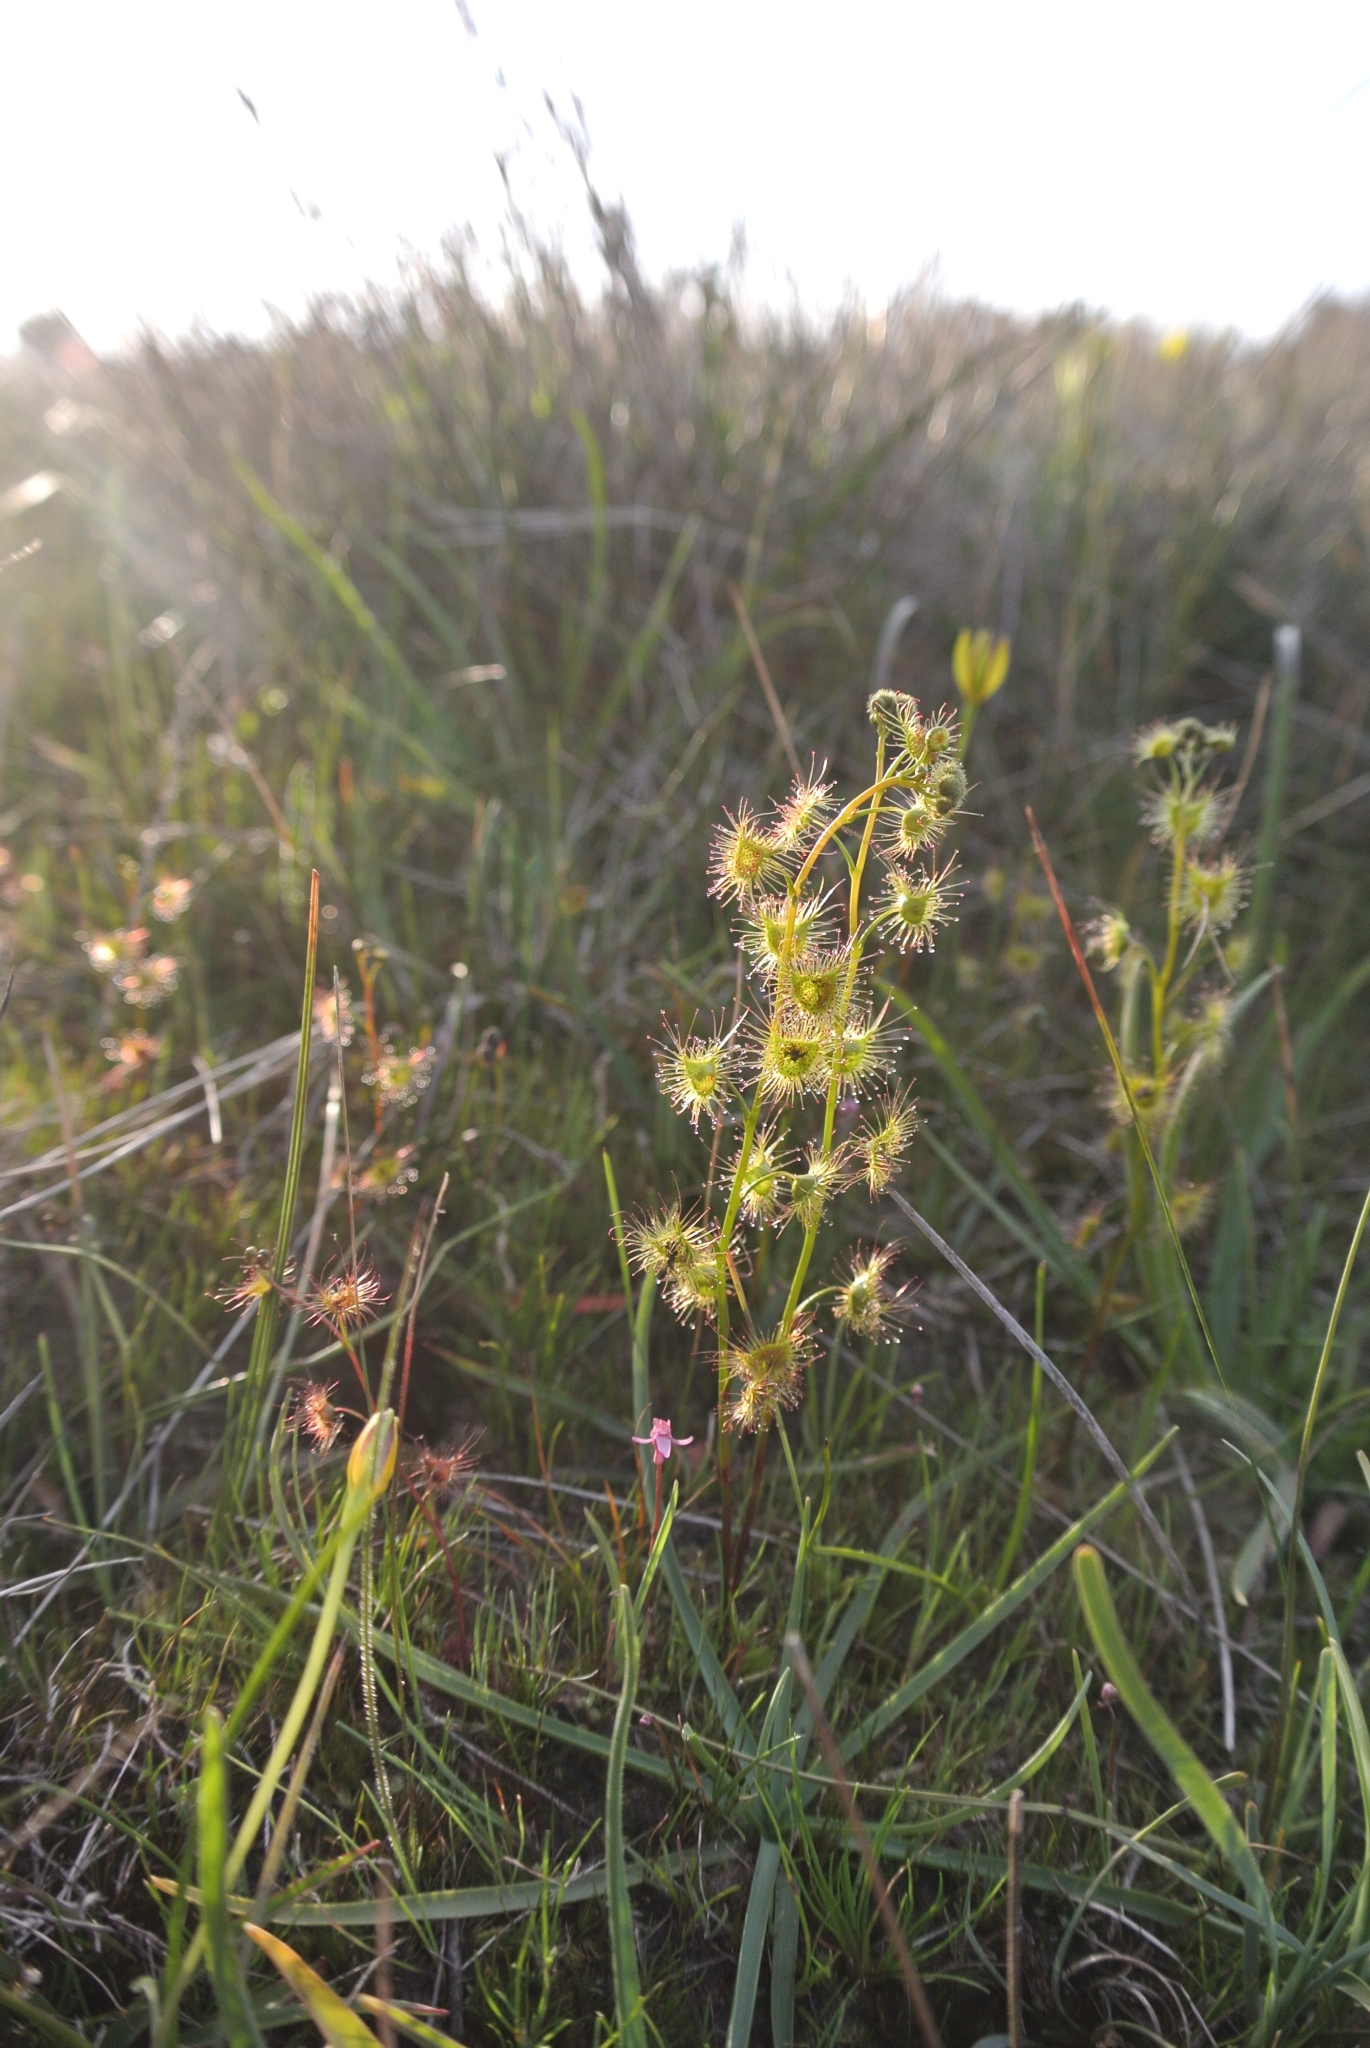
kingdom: Plantae
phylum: Tracheophyta
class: Magnoliopsida
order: Lamiales
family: Lentibulariaceae
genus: Utricularia
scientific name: Utricularia tenella
